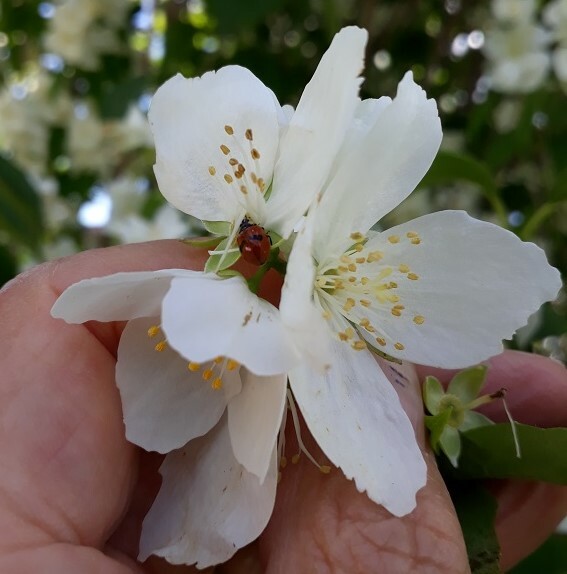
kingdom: Animalia
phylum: Arthropoda
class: Insecta
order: Coleoptera
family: Coccinellidae
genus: Adalia
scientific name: Adalia bipunctata
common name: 2-spot ladybird
